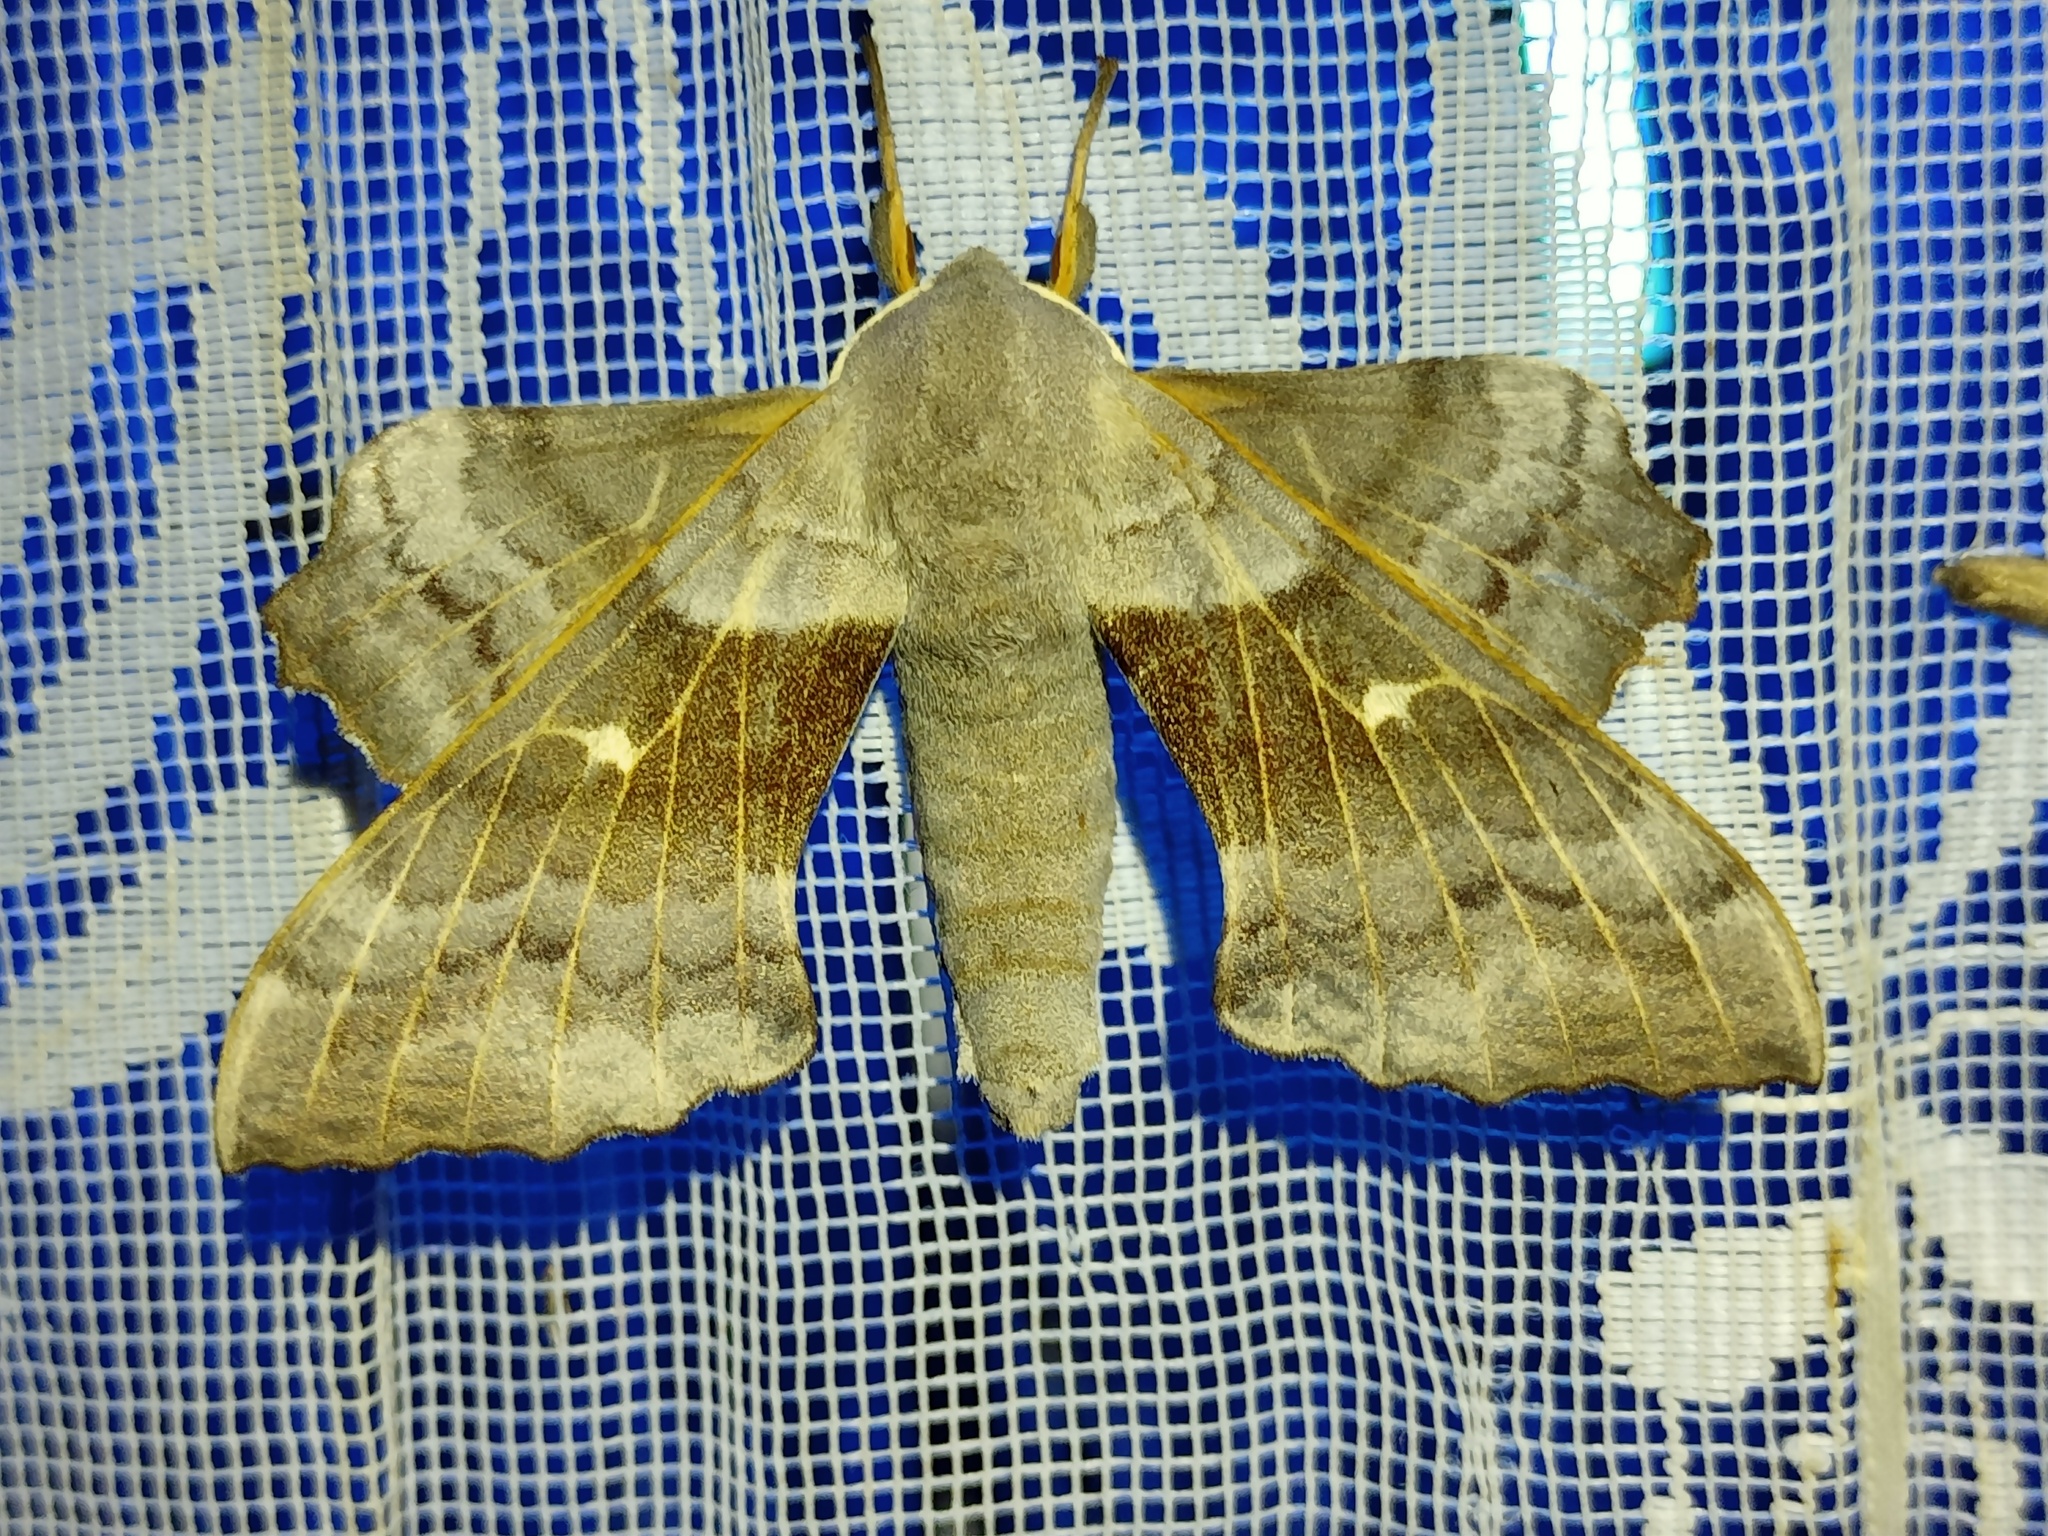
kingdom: Animalia
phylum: Arthropoda
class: Insecta
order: Lepidoptera
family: Sphingidae
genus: Laothoe
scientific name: Laothoe populi
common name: Poplar hawk-moth
